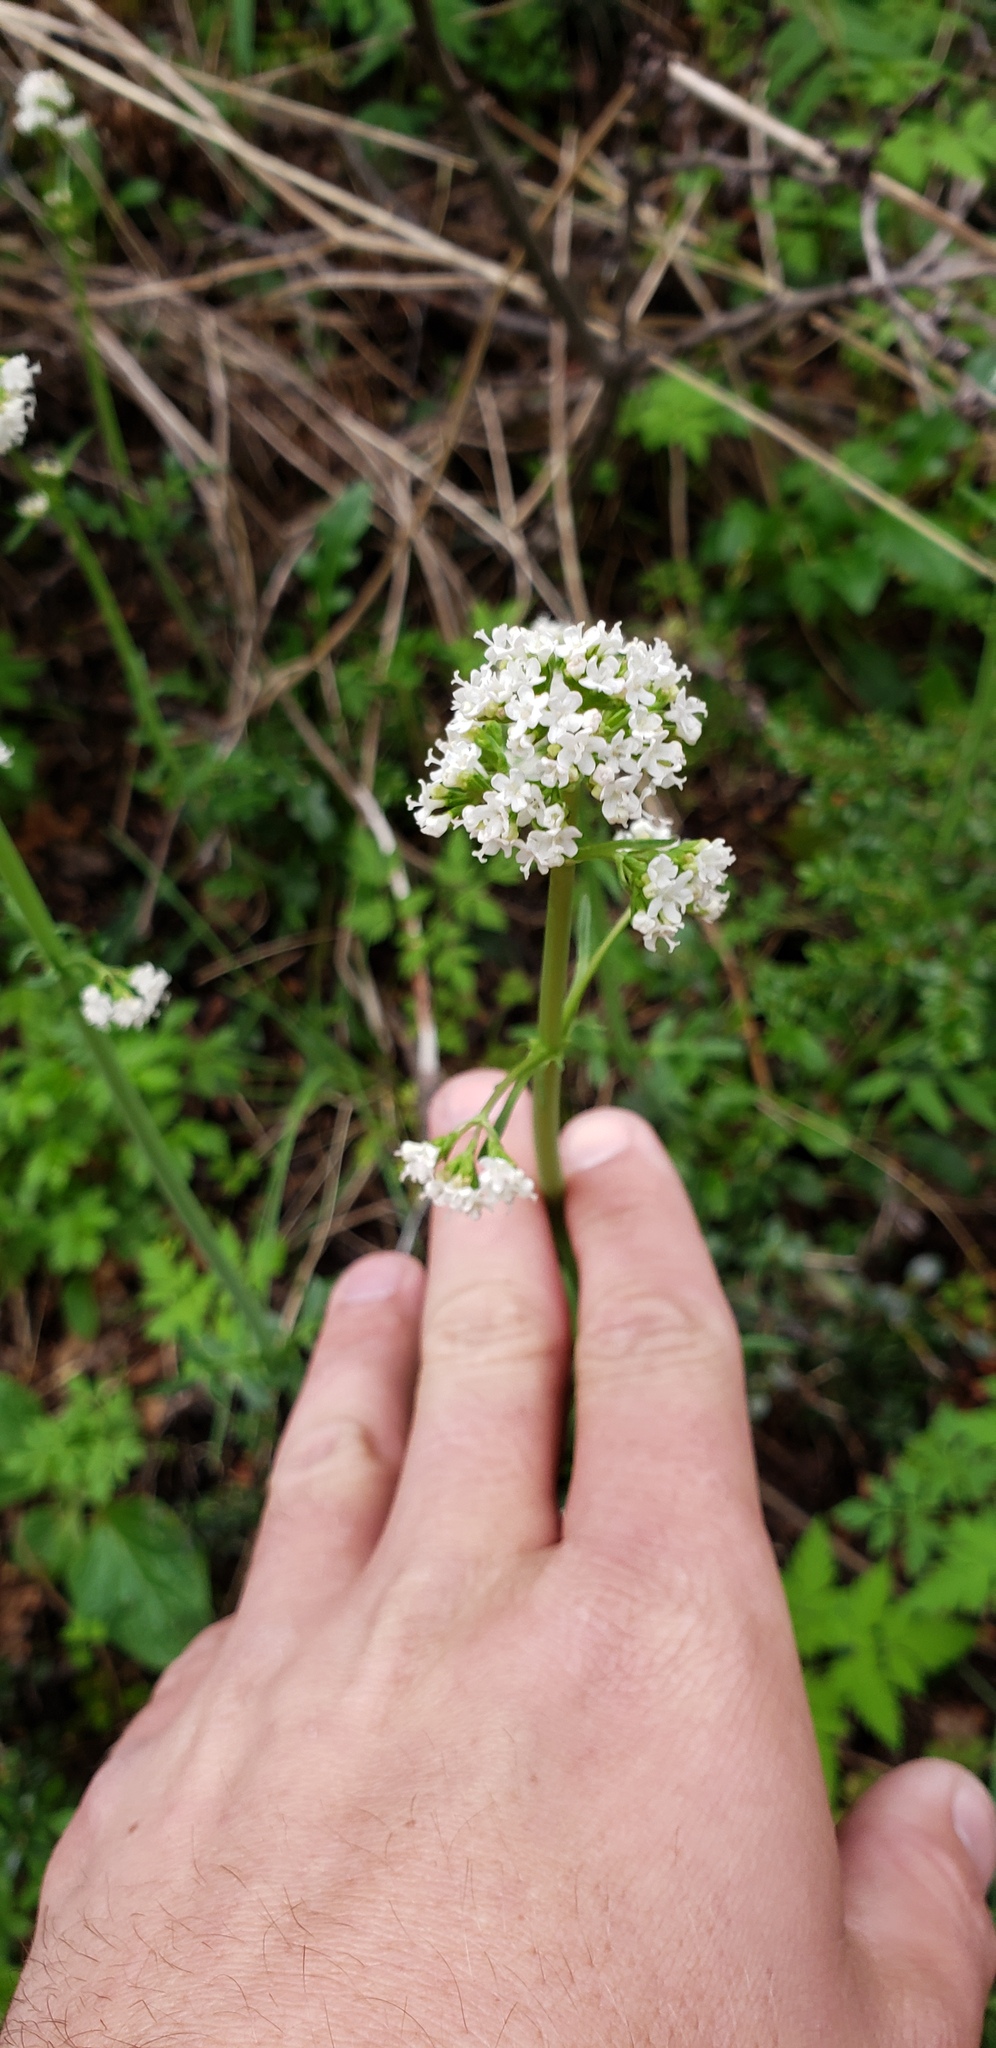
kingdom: Plantae
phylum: Tracheophyta
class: Magnoliopsida
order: Dipsacales
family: Caprifoliaceae
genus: Valeriana
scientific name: Valeriana laxiflora
